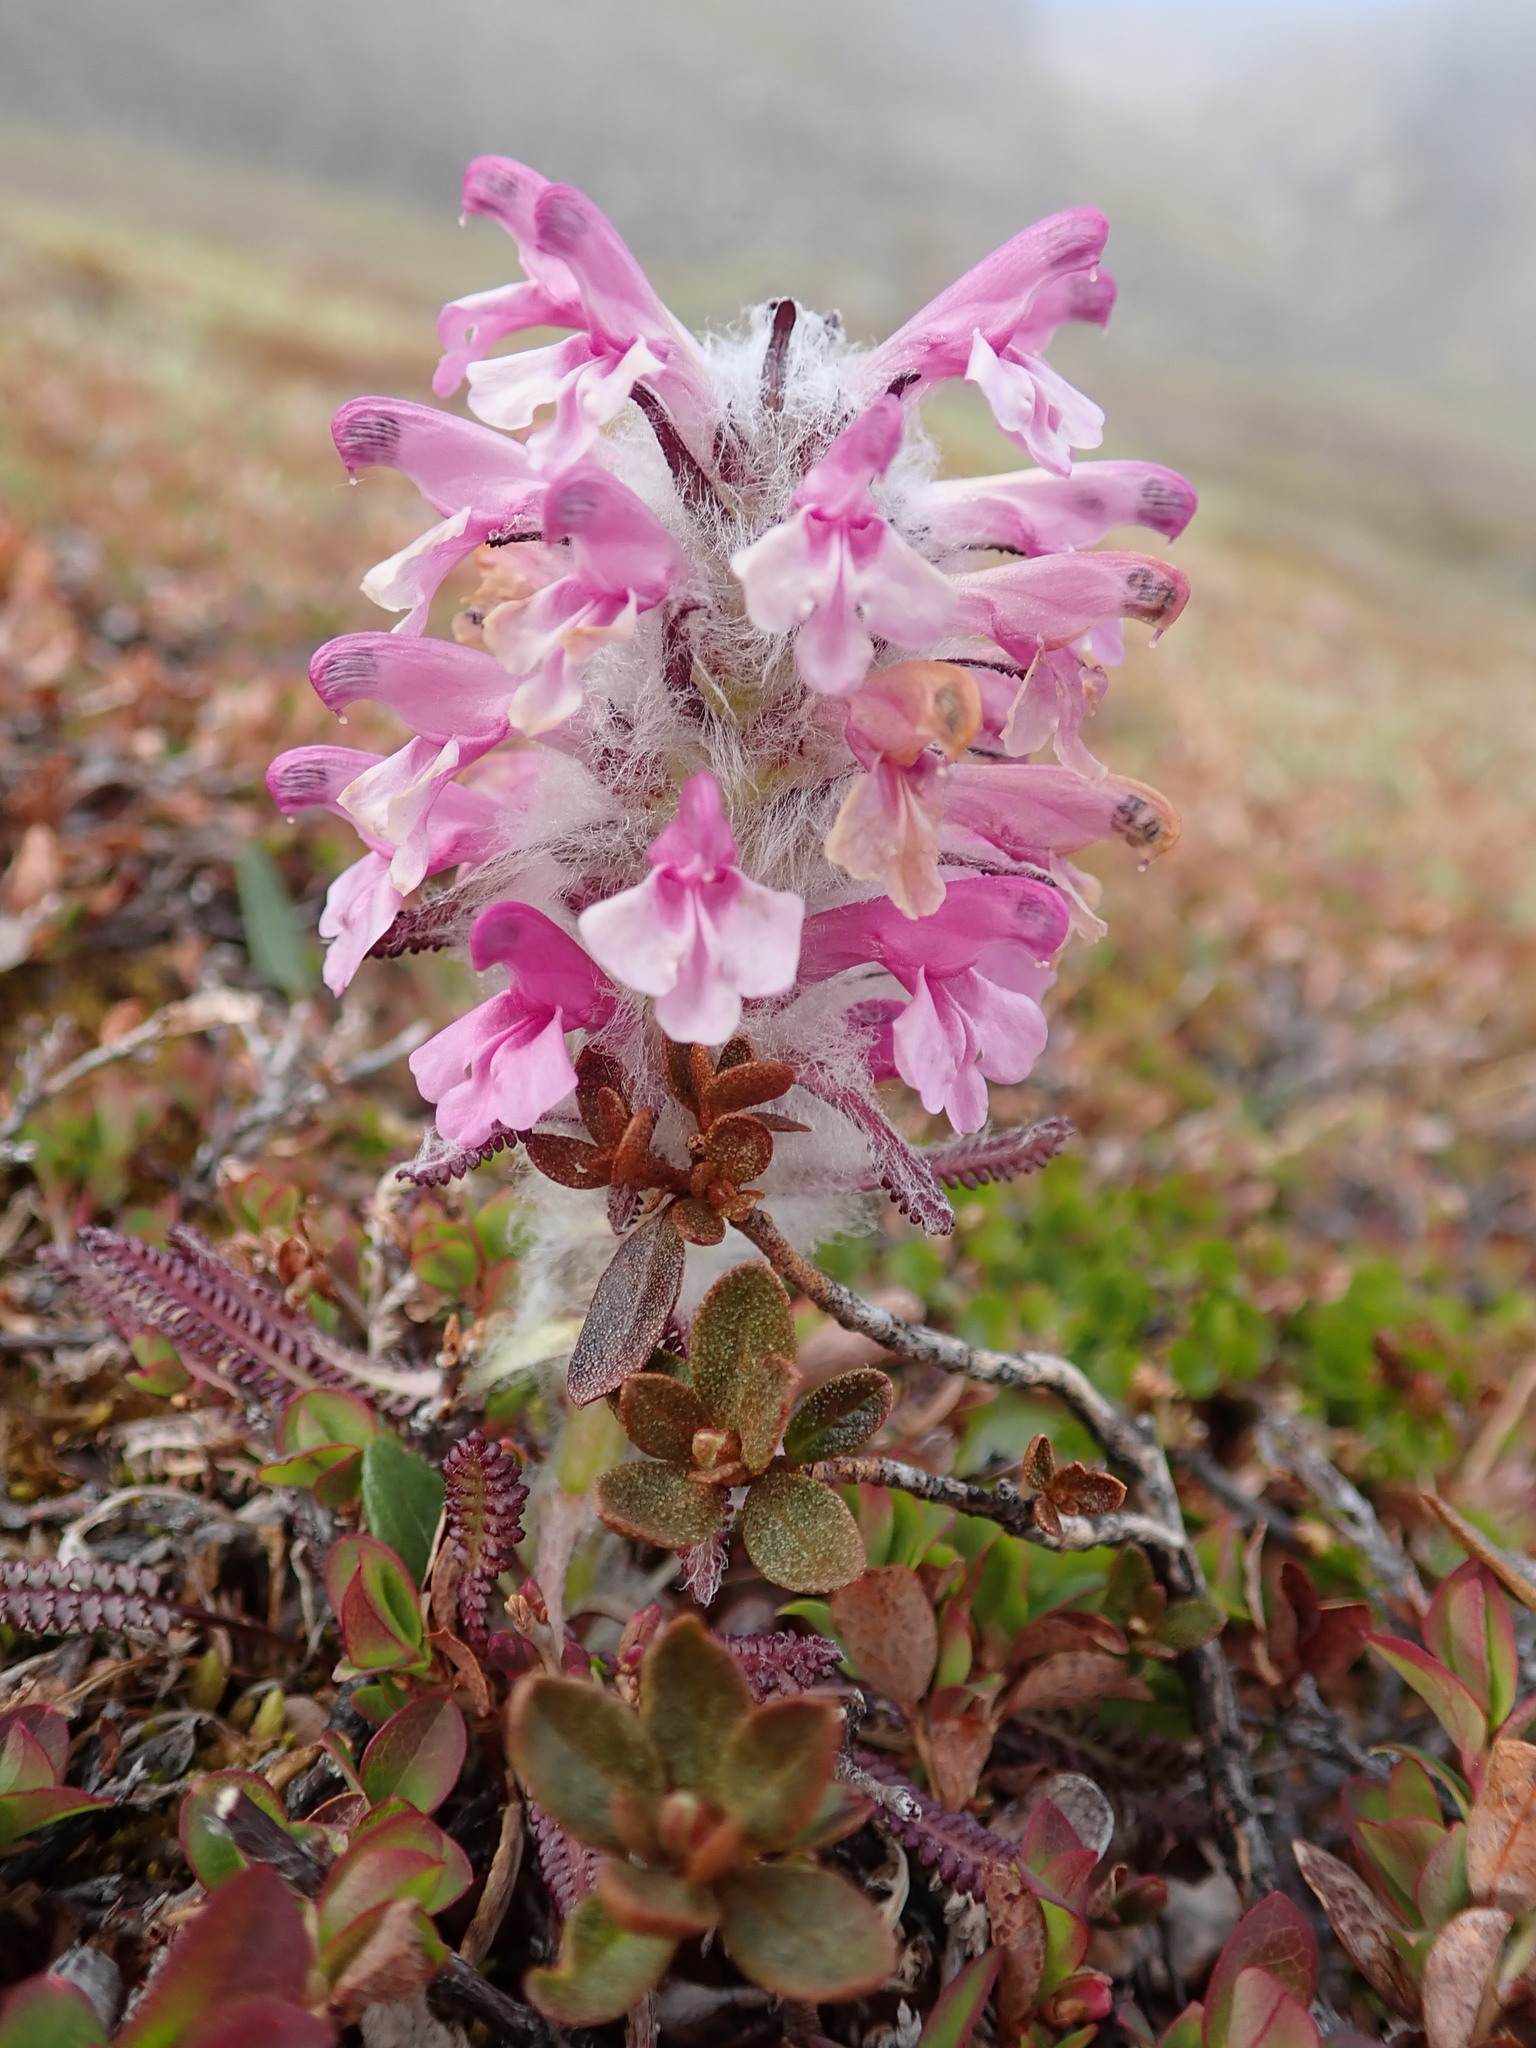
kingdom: Plantae
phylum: Tracheophyta
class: Magnoliopsida
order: Lamiales
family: Orobanchaceae
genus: Pedicularis
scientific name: Pedicularis lanata
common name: Woolly lousewort
